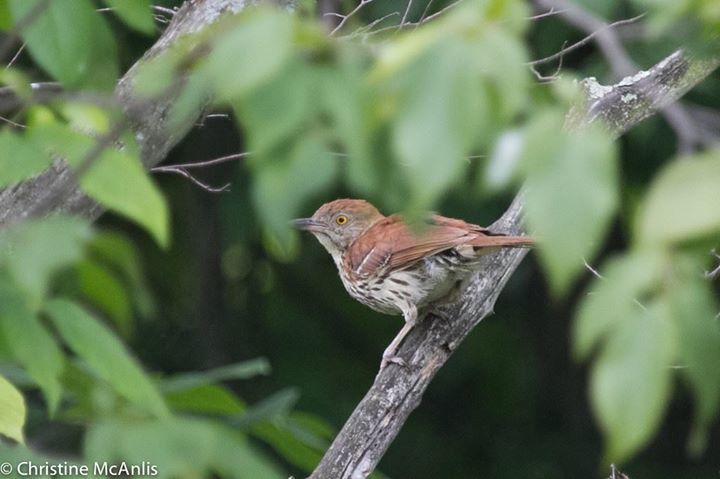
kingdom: Animalia
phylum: Chordata
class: Aves
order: Passeriformes
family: Mimidae
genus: Toxostoma
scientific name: Toxostoma rufum
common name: Brown thrasher
